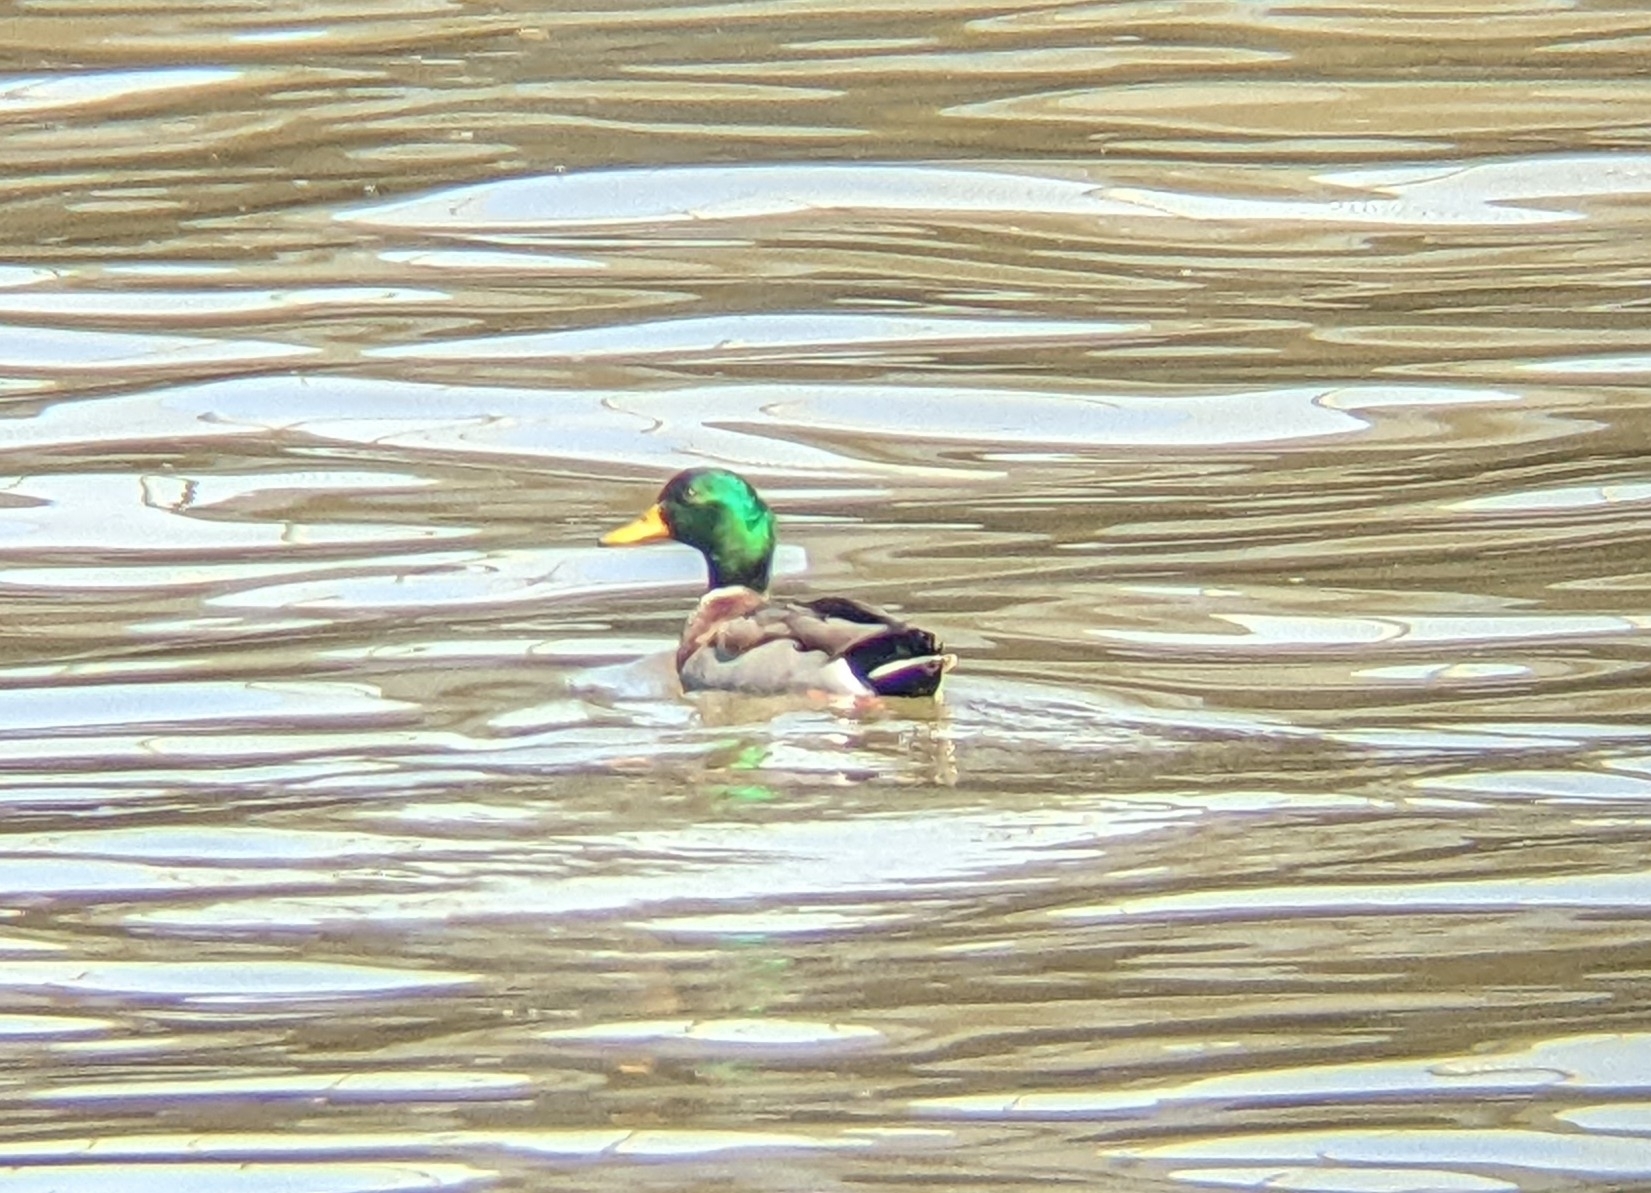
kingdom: Animalia
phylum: Chordata
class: Aves
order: Anseriformes
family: Anatidae
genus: Anas
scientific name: Anas platyrhynchos
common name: Mallard
